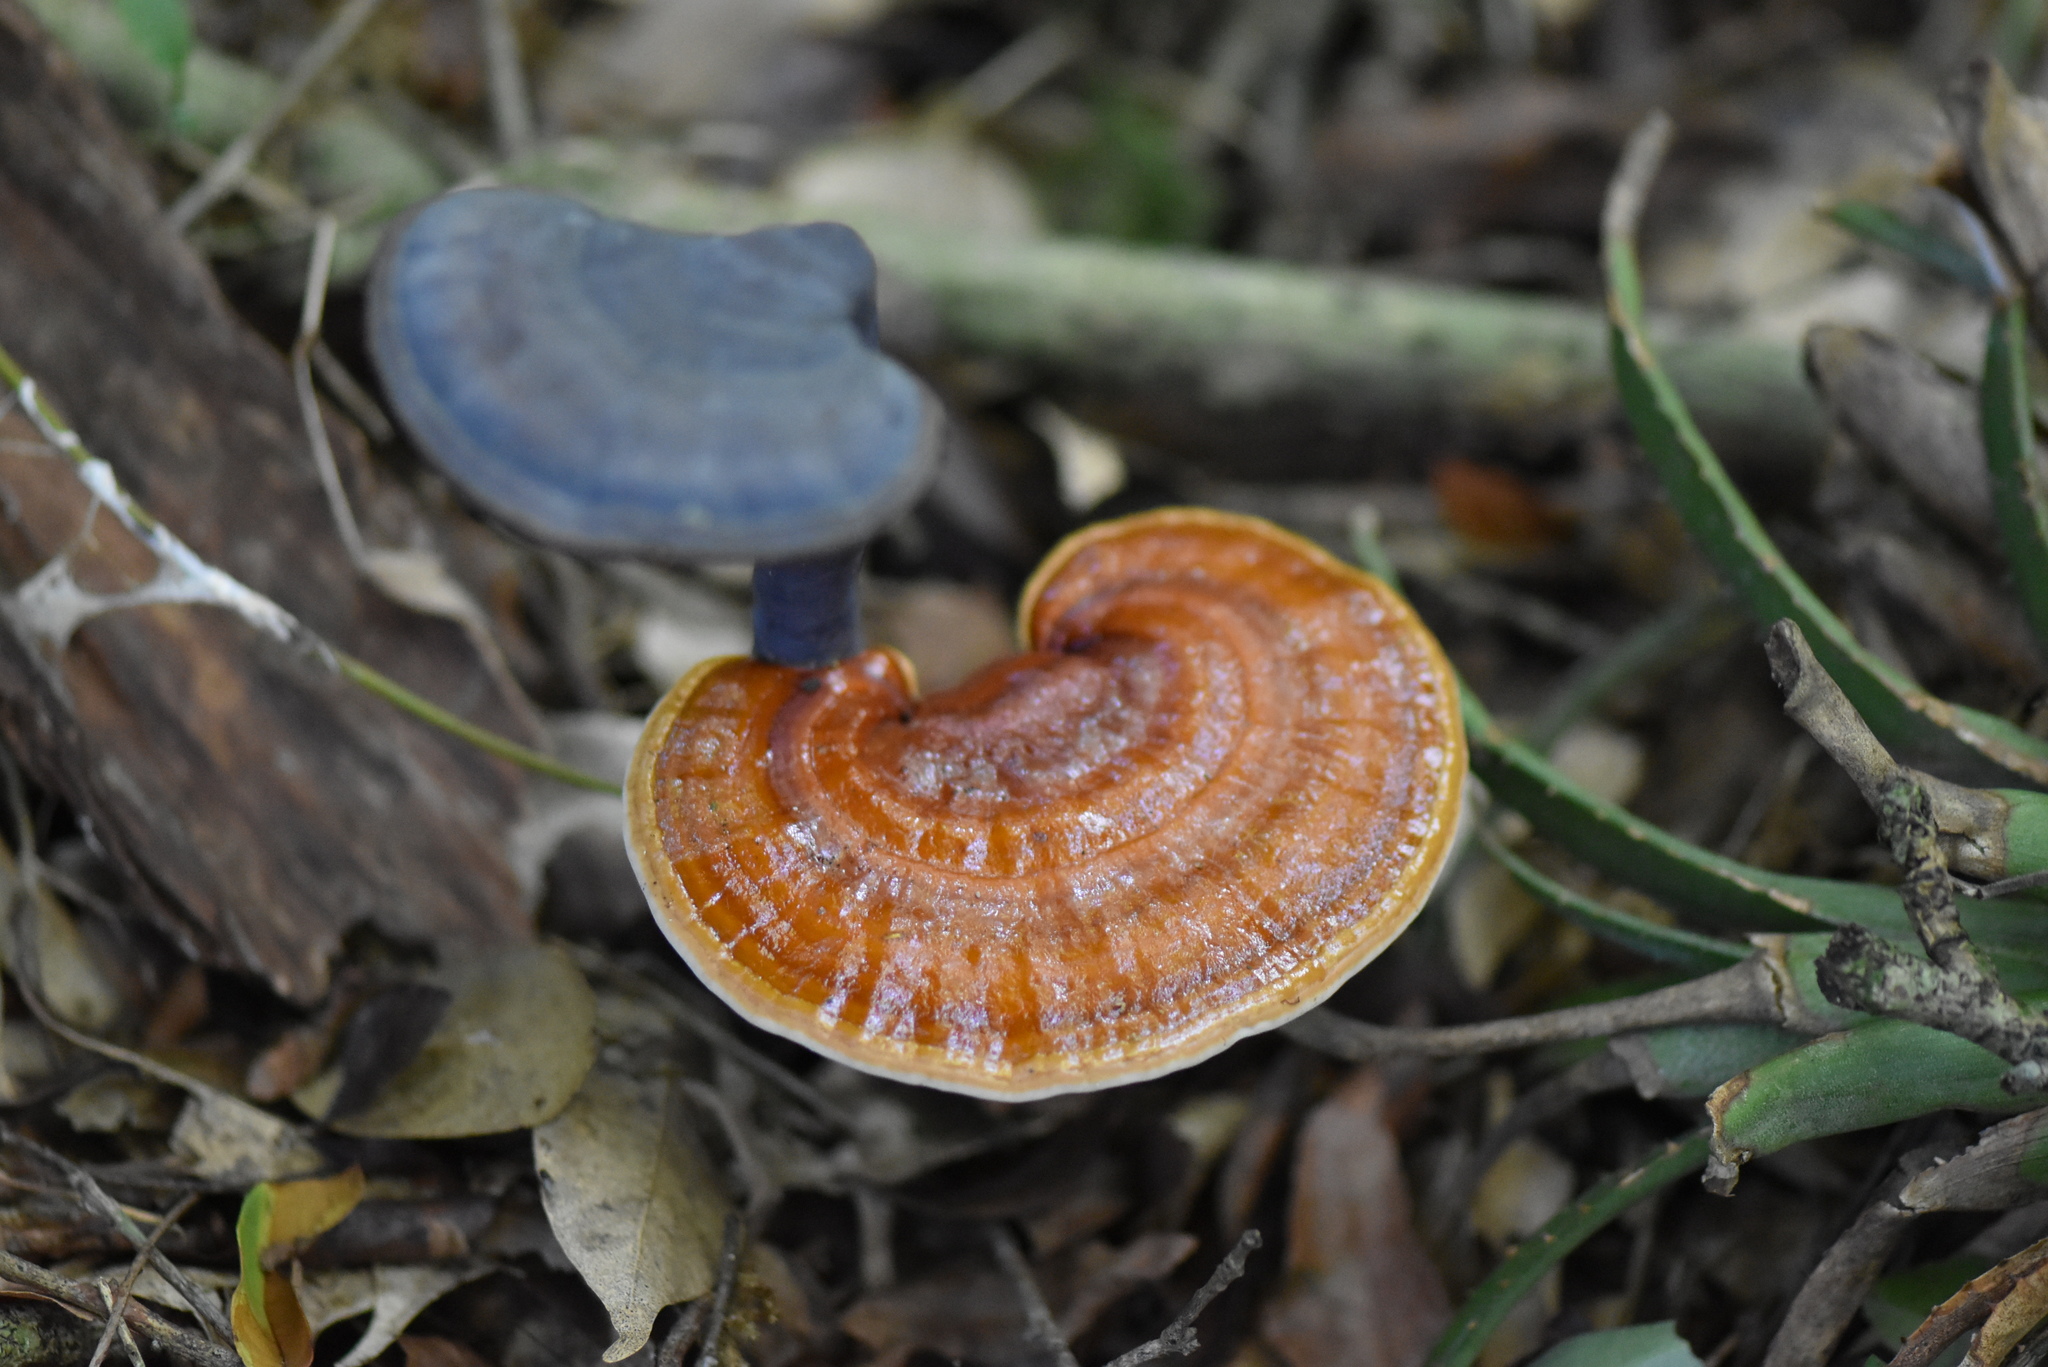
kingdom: Fungi
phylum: Basidiomycota
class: Agaricomycetes
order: Polyporales
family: Polyporaceae
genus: Ganoderma
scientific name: Ganoderma lucidum
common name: Lacquered bracket
